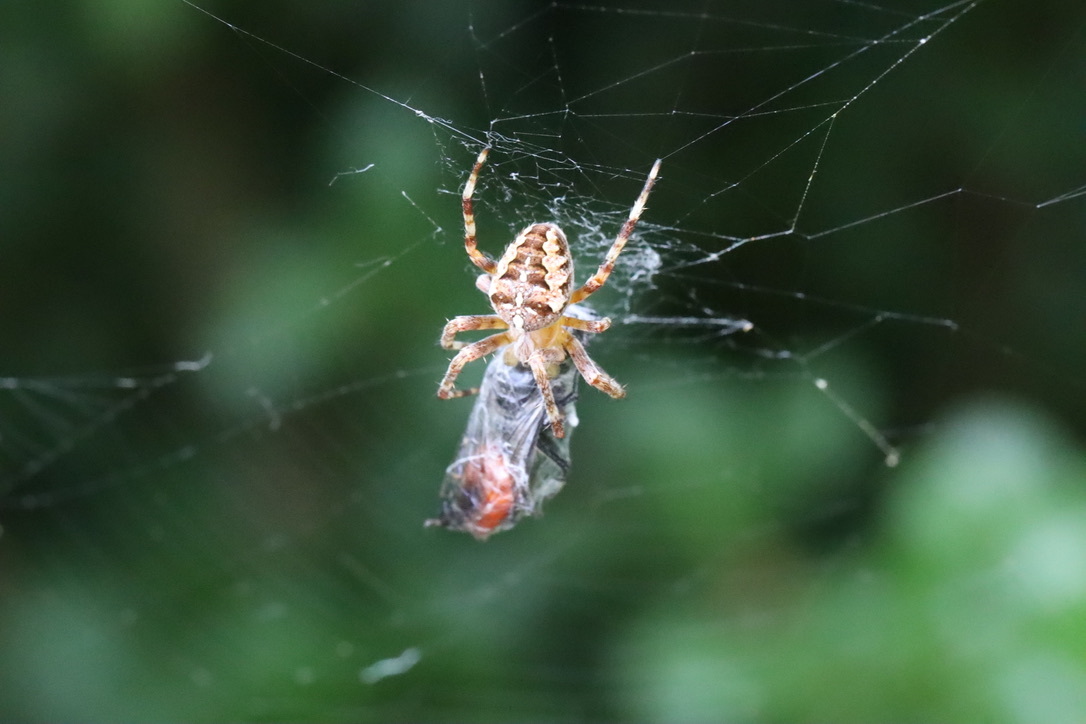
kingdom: Animalia
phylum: Arthropoda
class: Arachnida
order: Araneae
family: Araneidae
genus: Araneus
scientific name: Araneus diadematus
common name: Cross orbweaver
